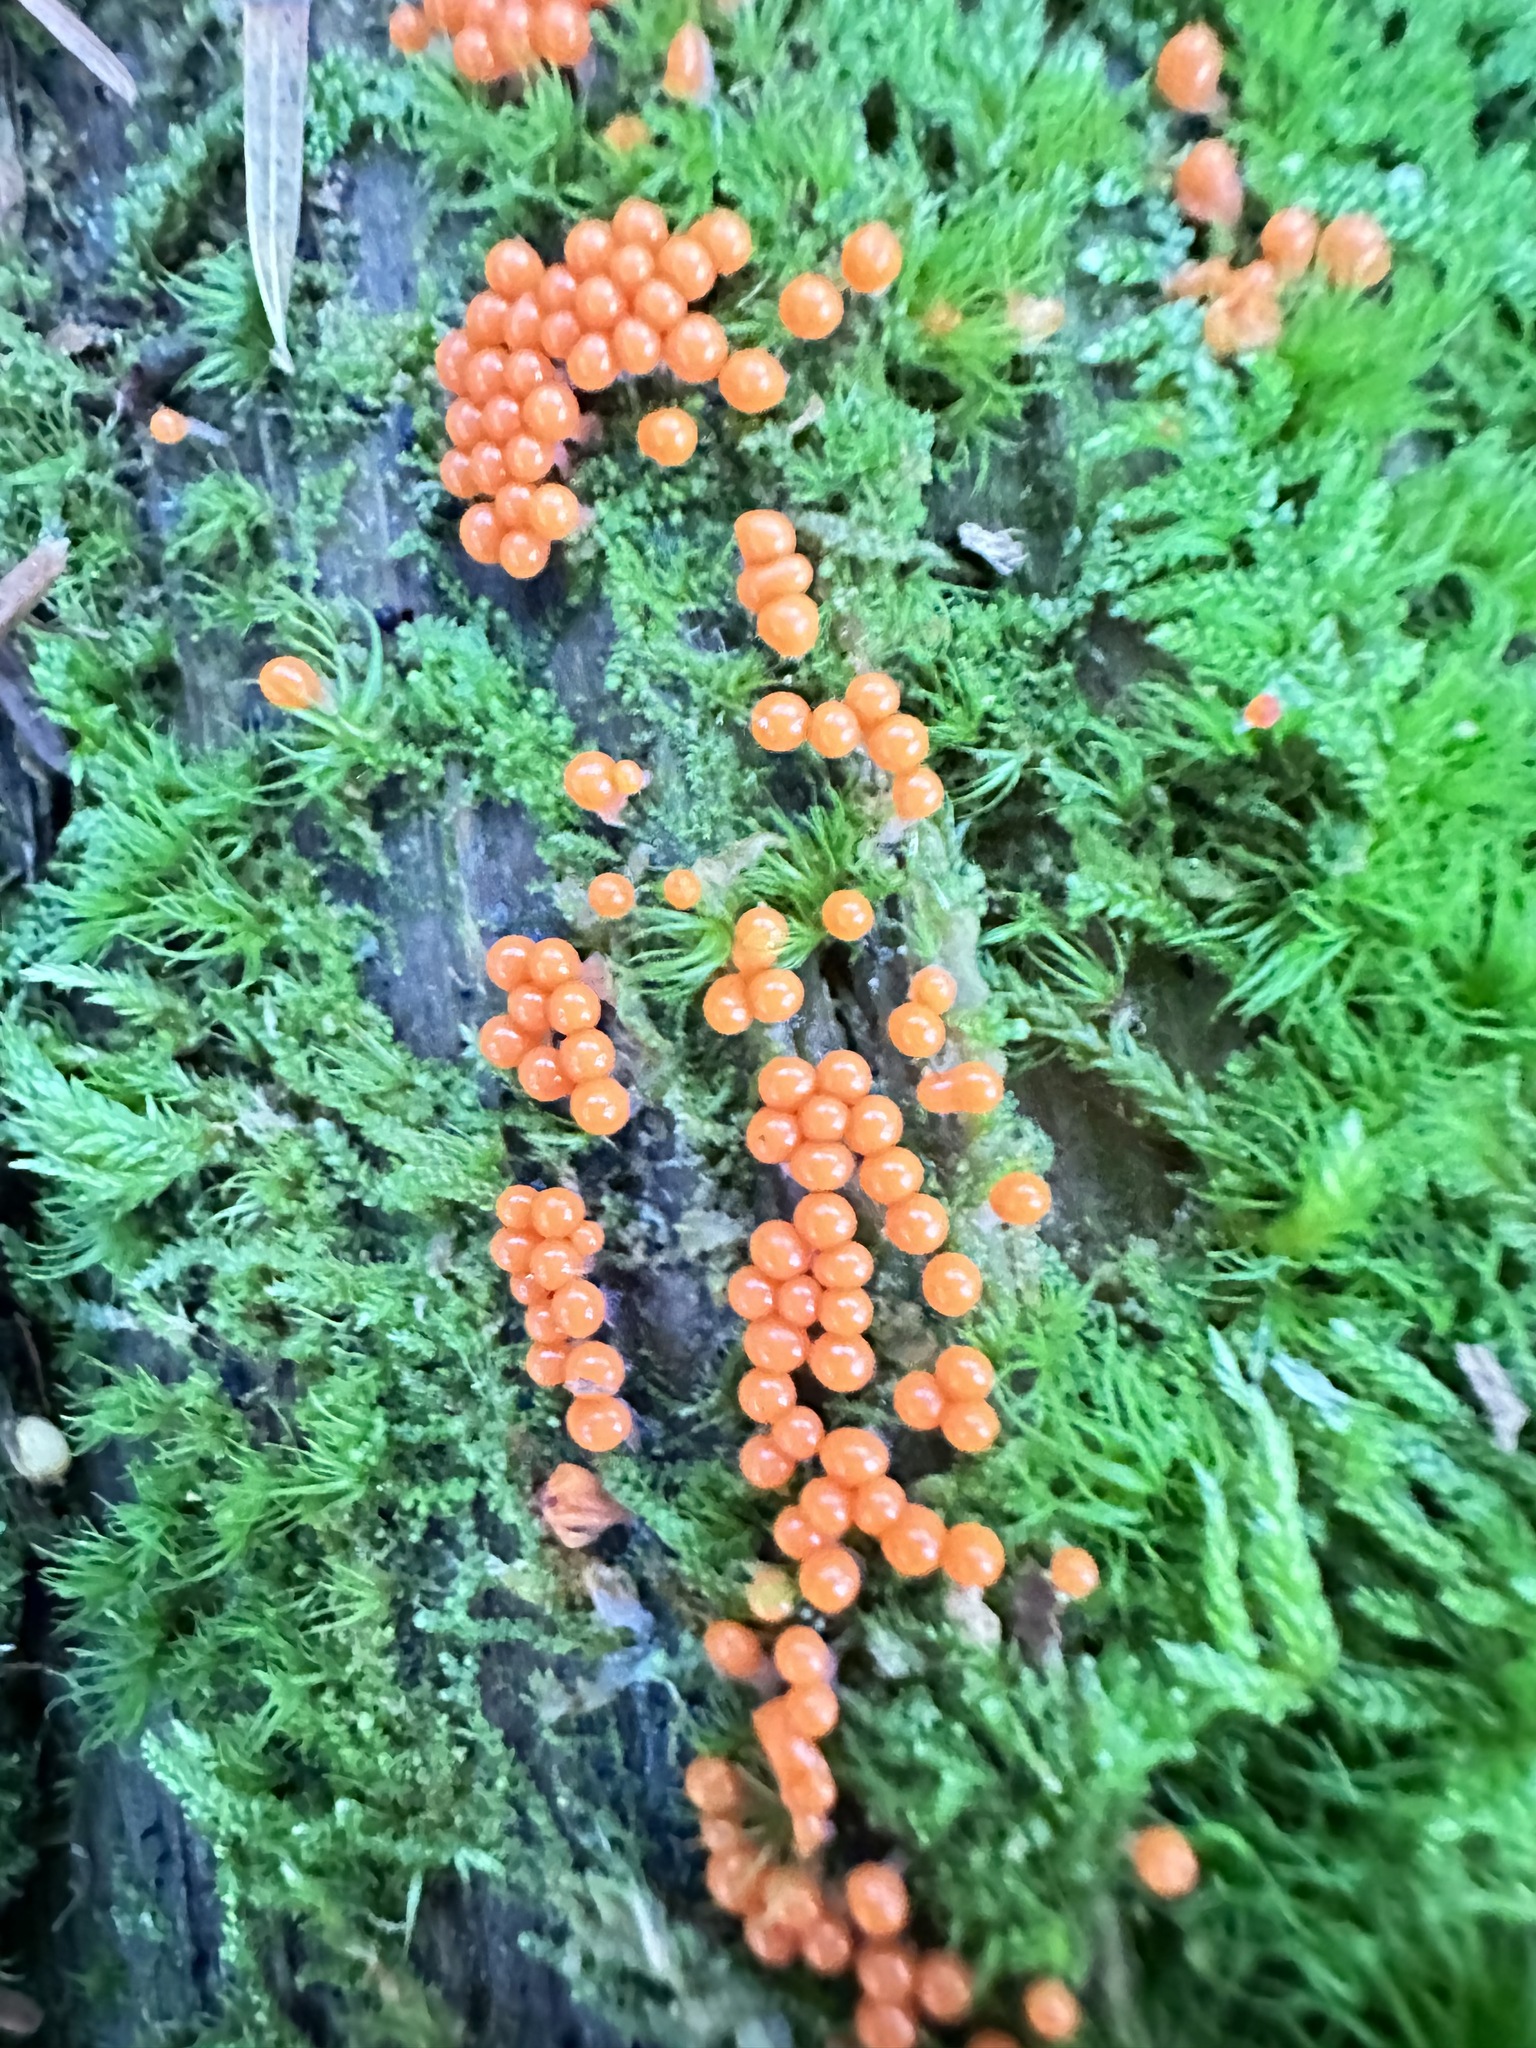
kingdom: Protozoa
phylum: Mycetozoa
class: Myxomycetes
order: Trichiales
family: Arcyriaceae
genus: Hemitrichia
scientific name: Hemitrichia decipiens
